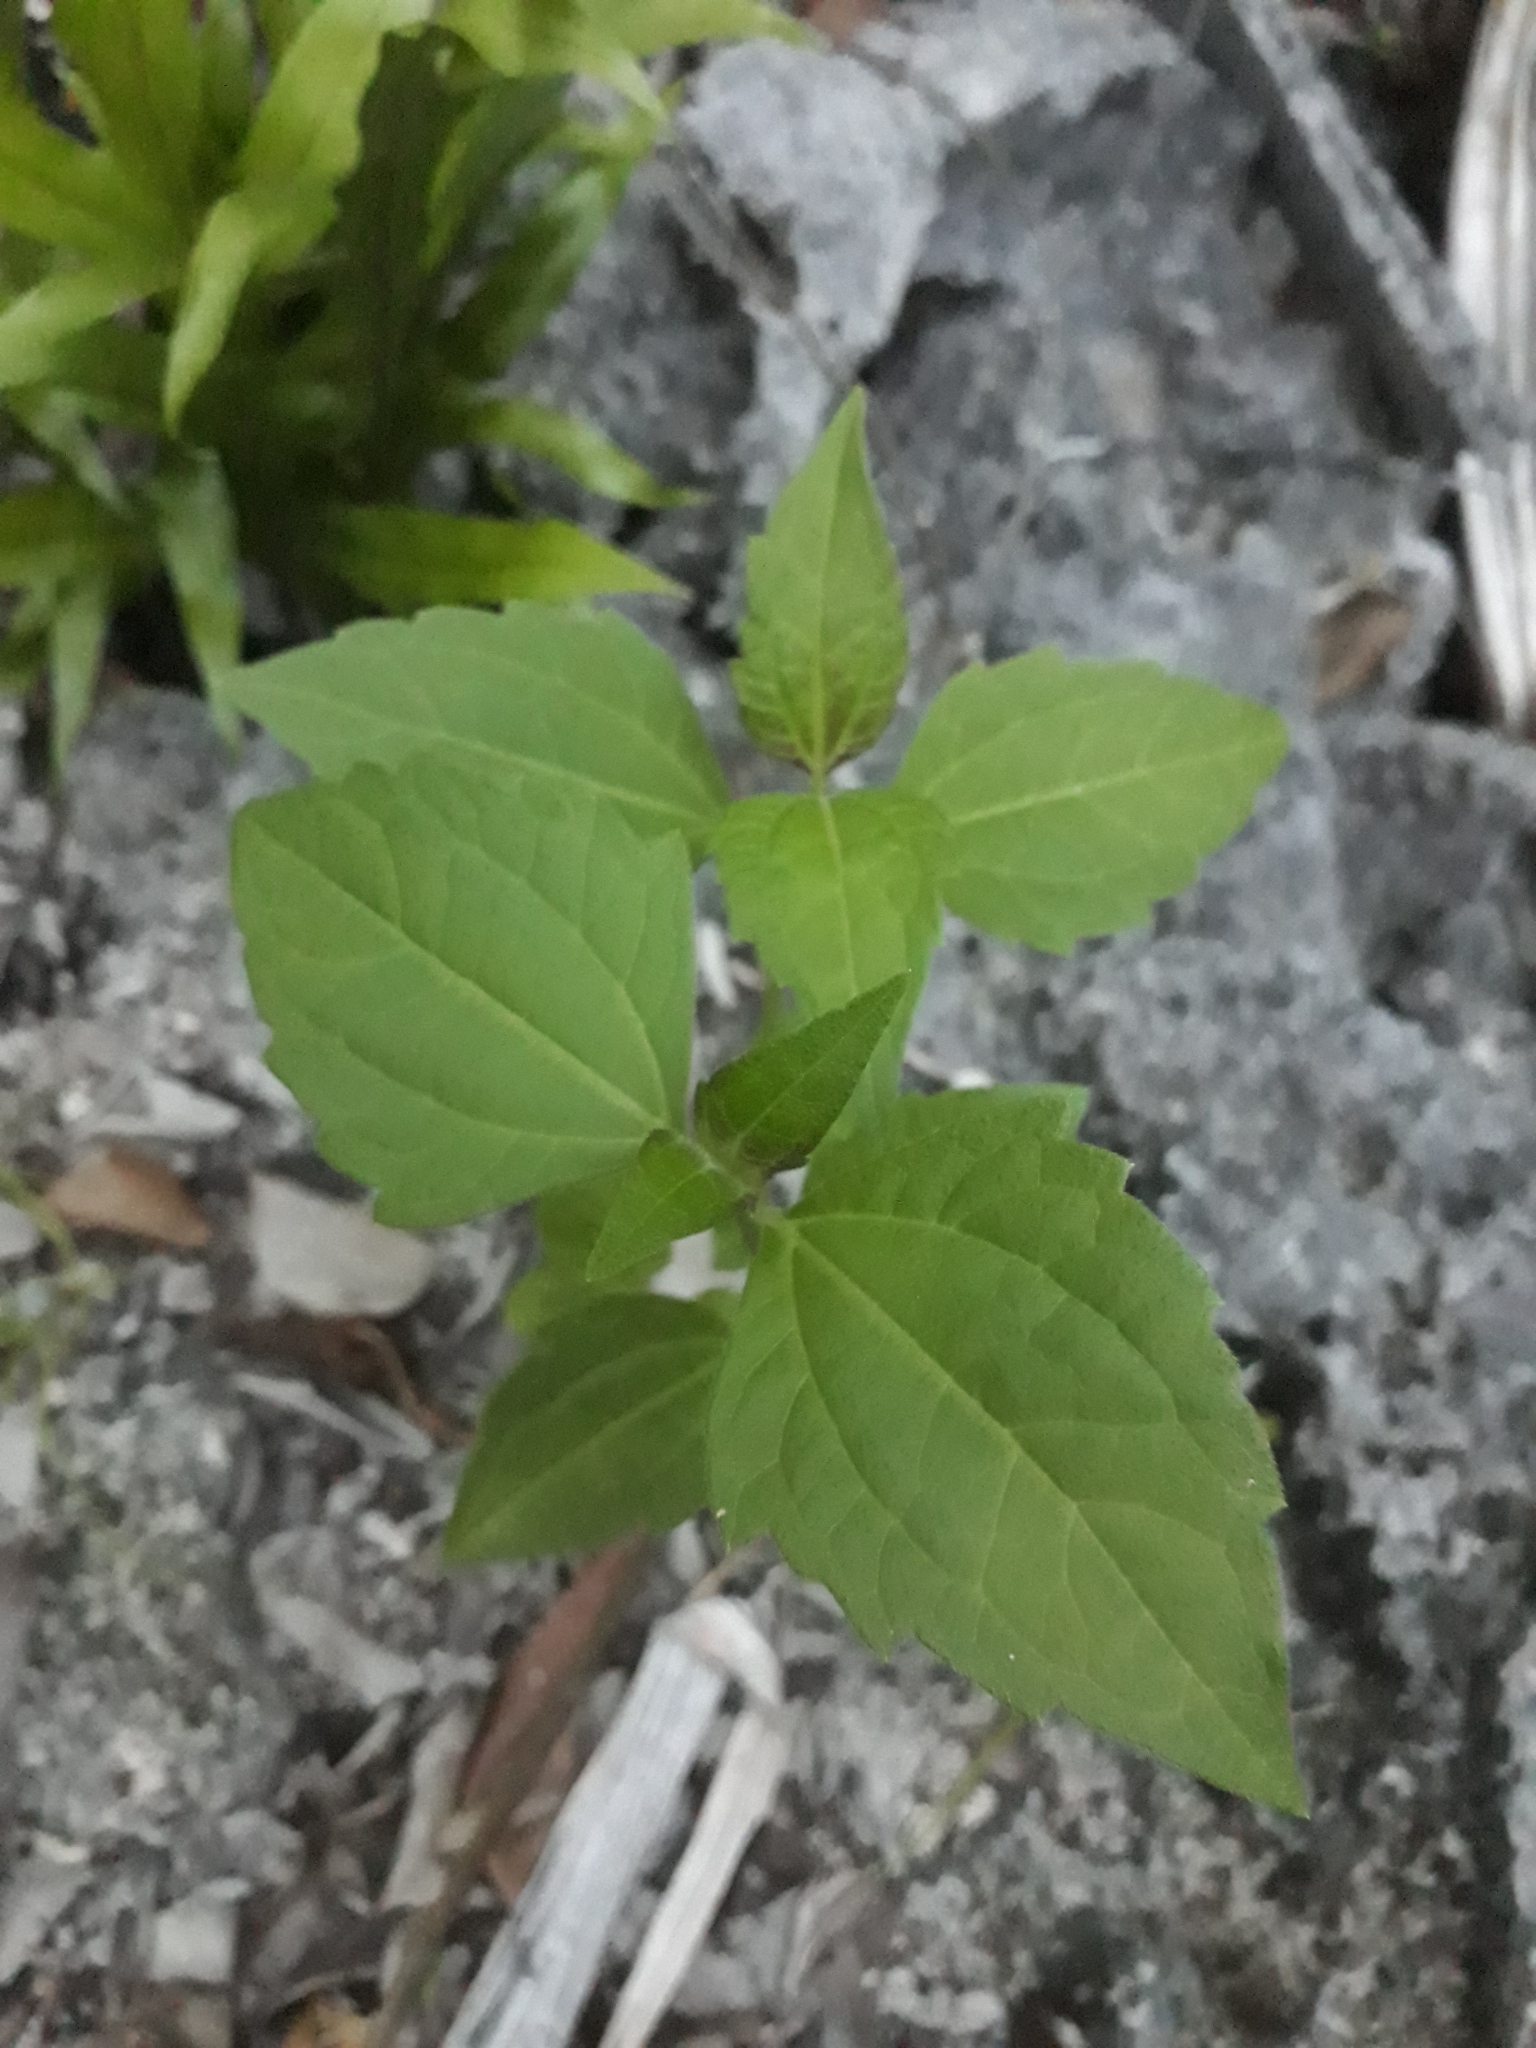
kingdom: Plantae
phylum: Tracheophyta
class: Magnoliopsida
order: Asterales
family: Asteraceae
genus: Chromolaena
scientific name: Chromolaena odorata
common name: Siamweed
